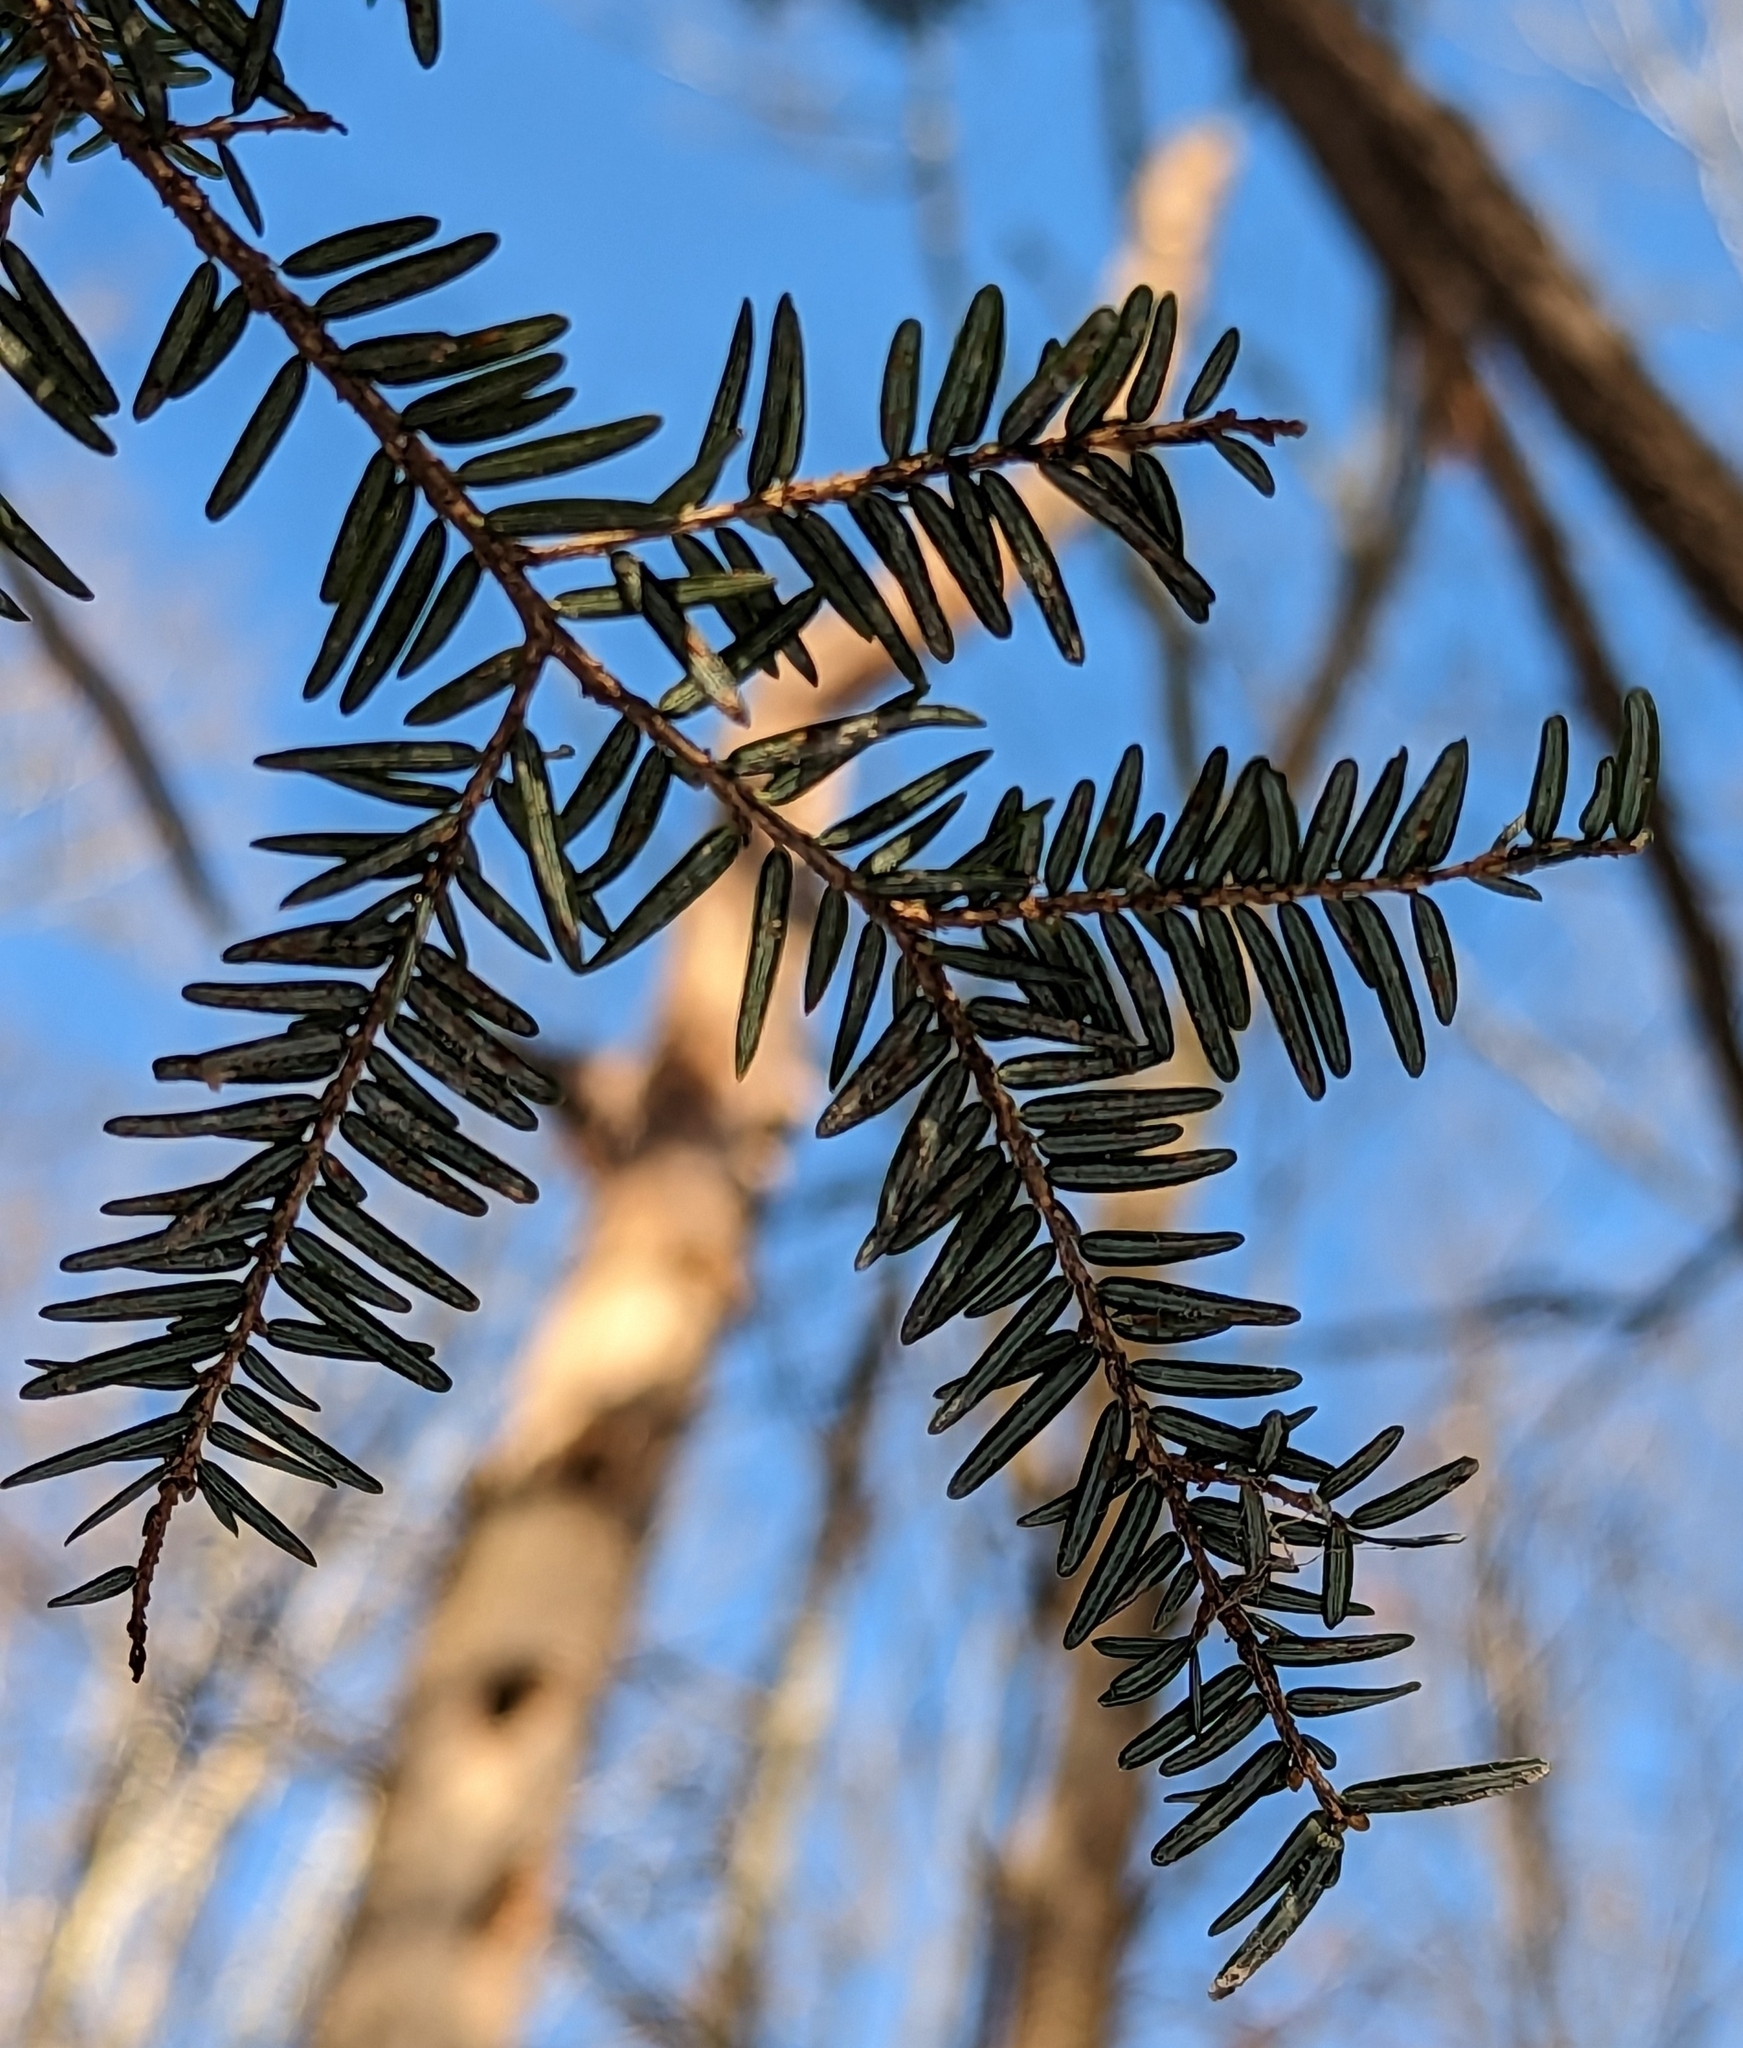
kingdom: Plantae
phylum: Tracheophyta
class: Pinopsida
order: Pinales
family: Pinaceae
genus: Tsuga
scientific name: Tsuga canadensis
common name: Eastern hemlock
